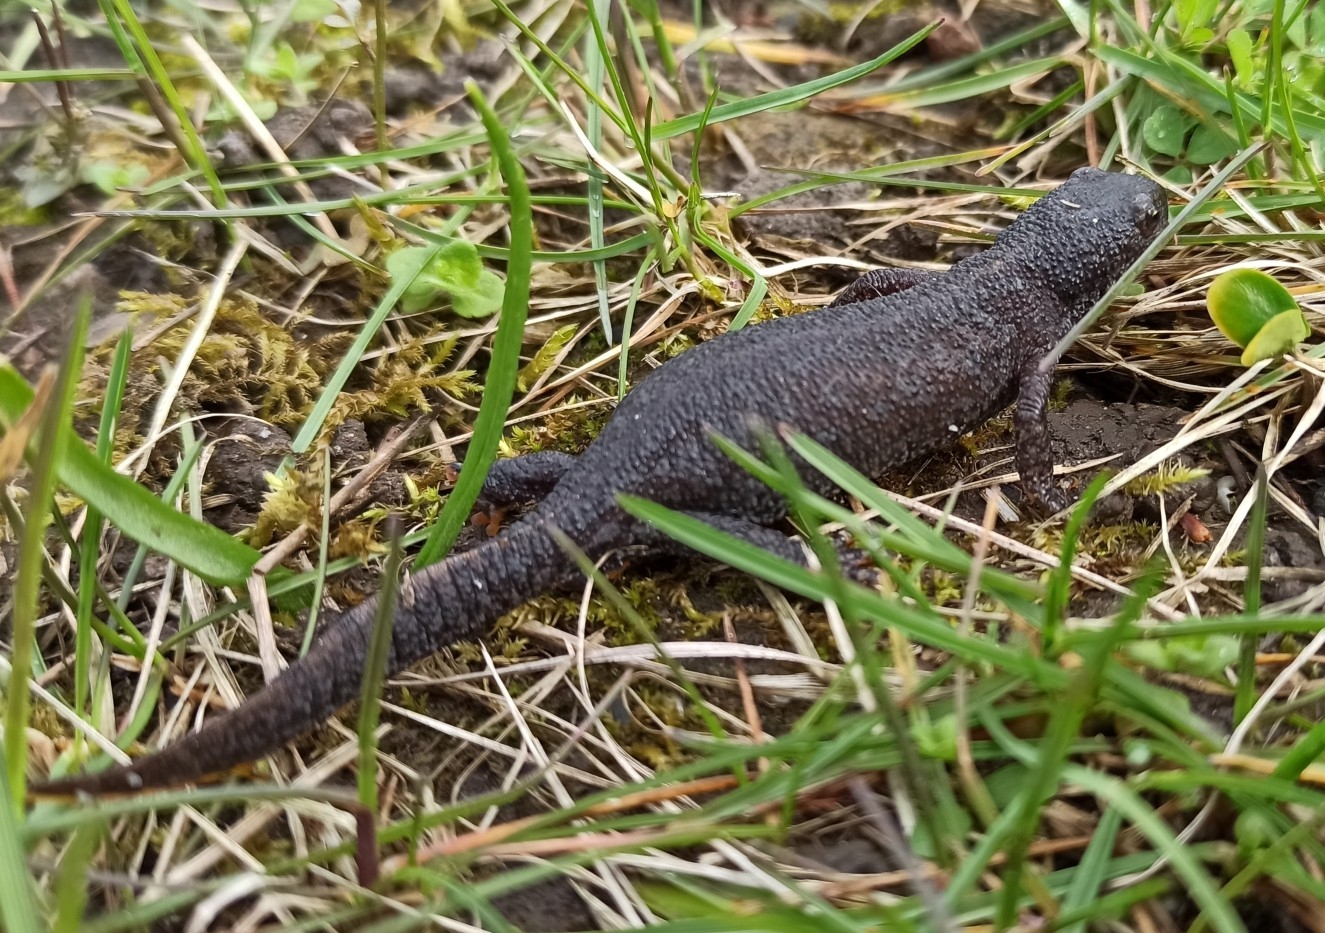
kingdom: Animalia
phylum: Chordata
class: Amphibia
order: Caudata
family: Salamandridae
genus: Ichthyosaura
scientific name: Ichthyosaura alpestris
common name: Alpine newt
